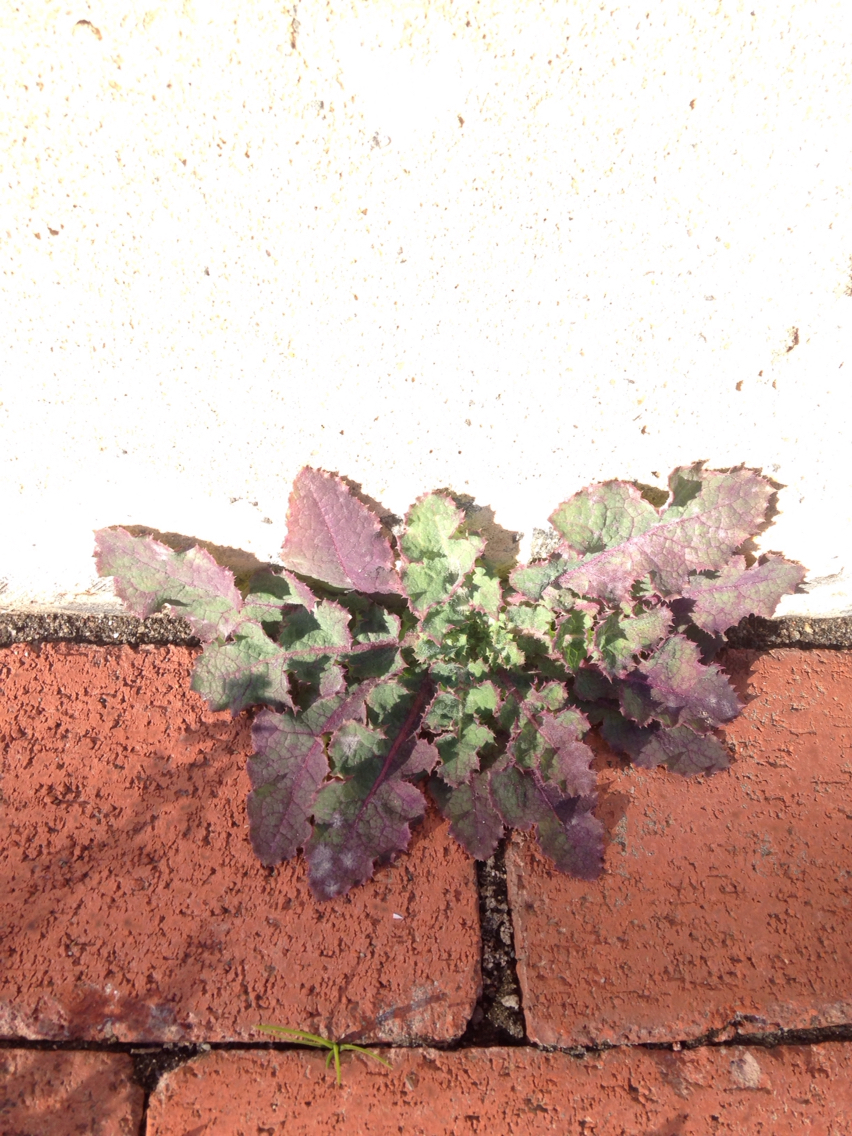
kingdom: Plantae
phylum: Tracheophyta
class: Magnoliopsida
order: Asterales
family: Asteraceae
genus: Sonchus
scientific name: Sonchus asper
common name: Prickly sow-thistle
